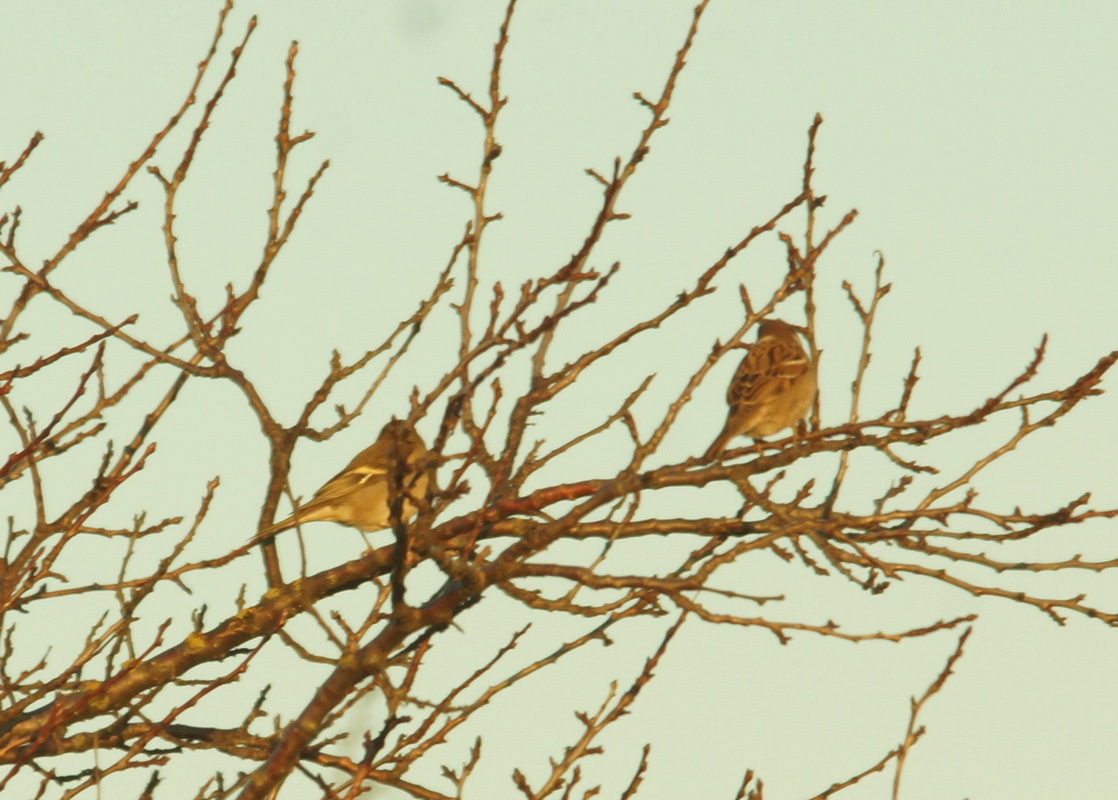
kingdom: Animalia
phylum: Chordata
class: Aves
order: Passeriformes
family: Passeridae
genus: Passer
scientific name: Passer montanus
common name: Eurasian tree sparrow
